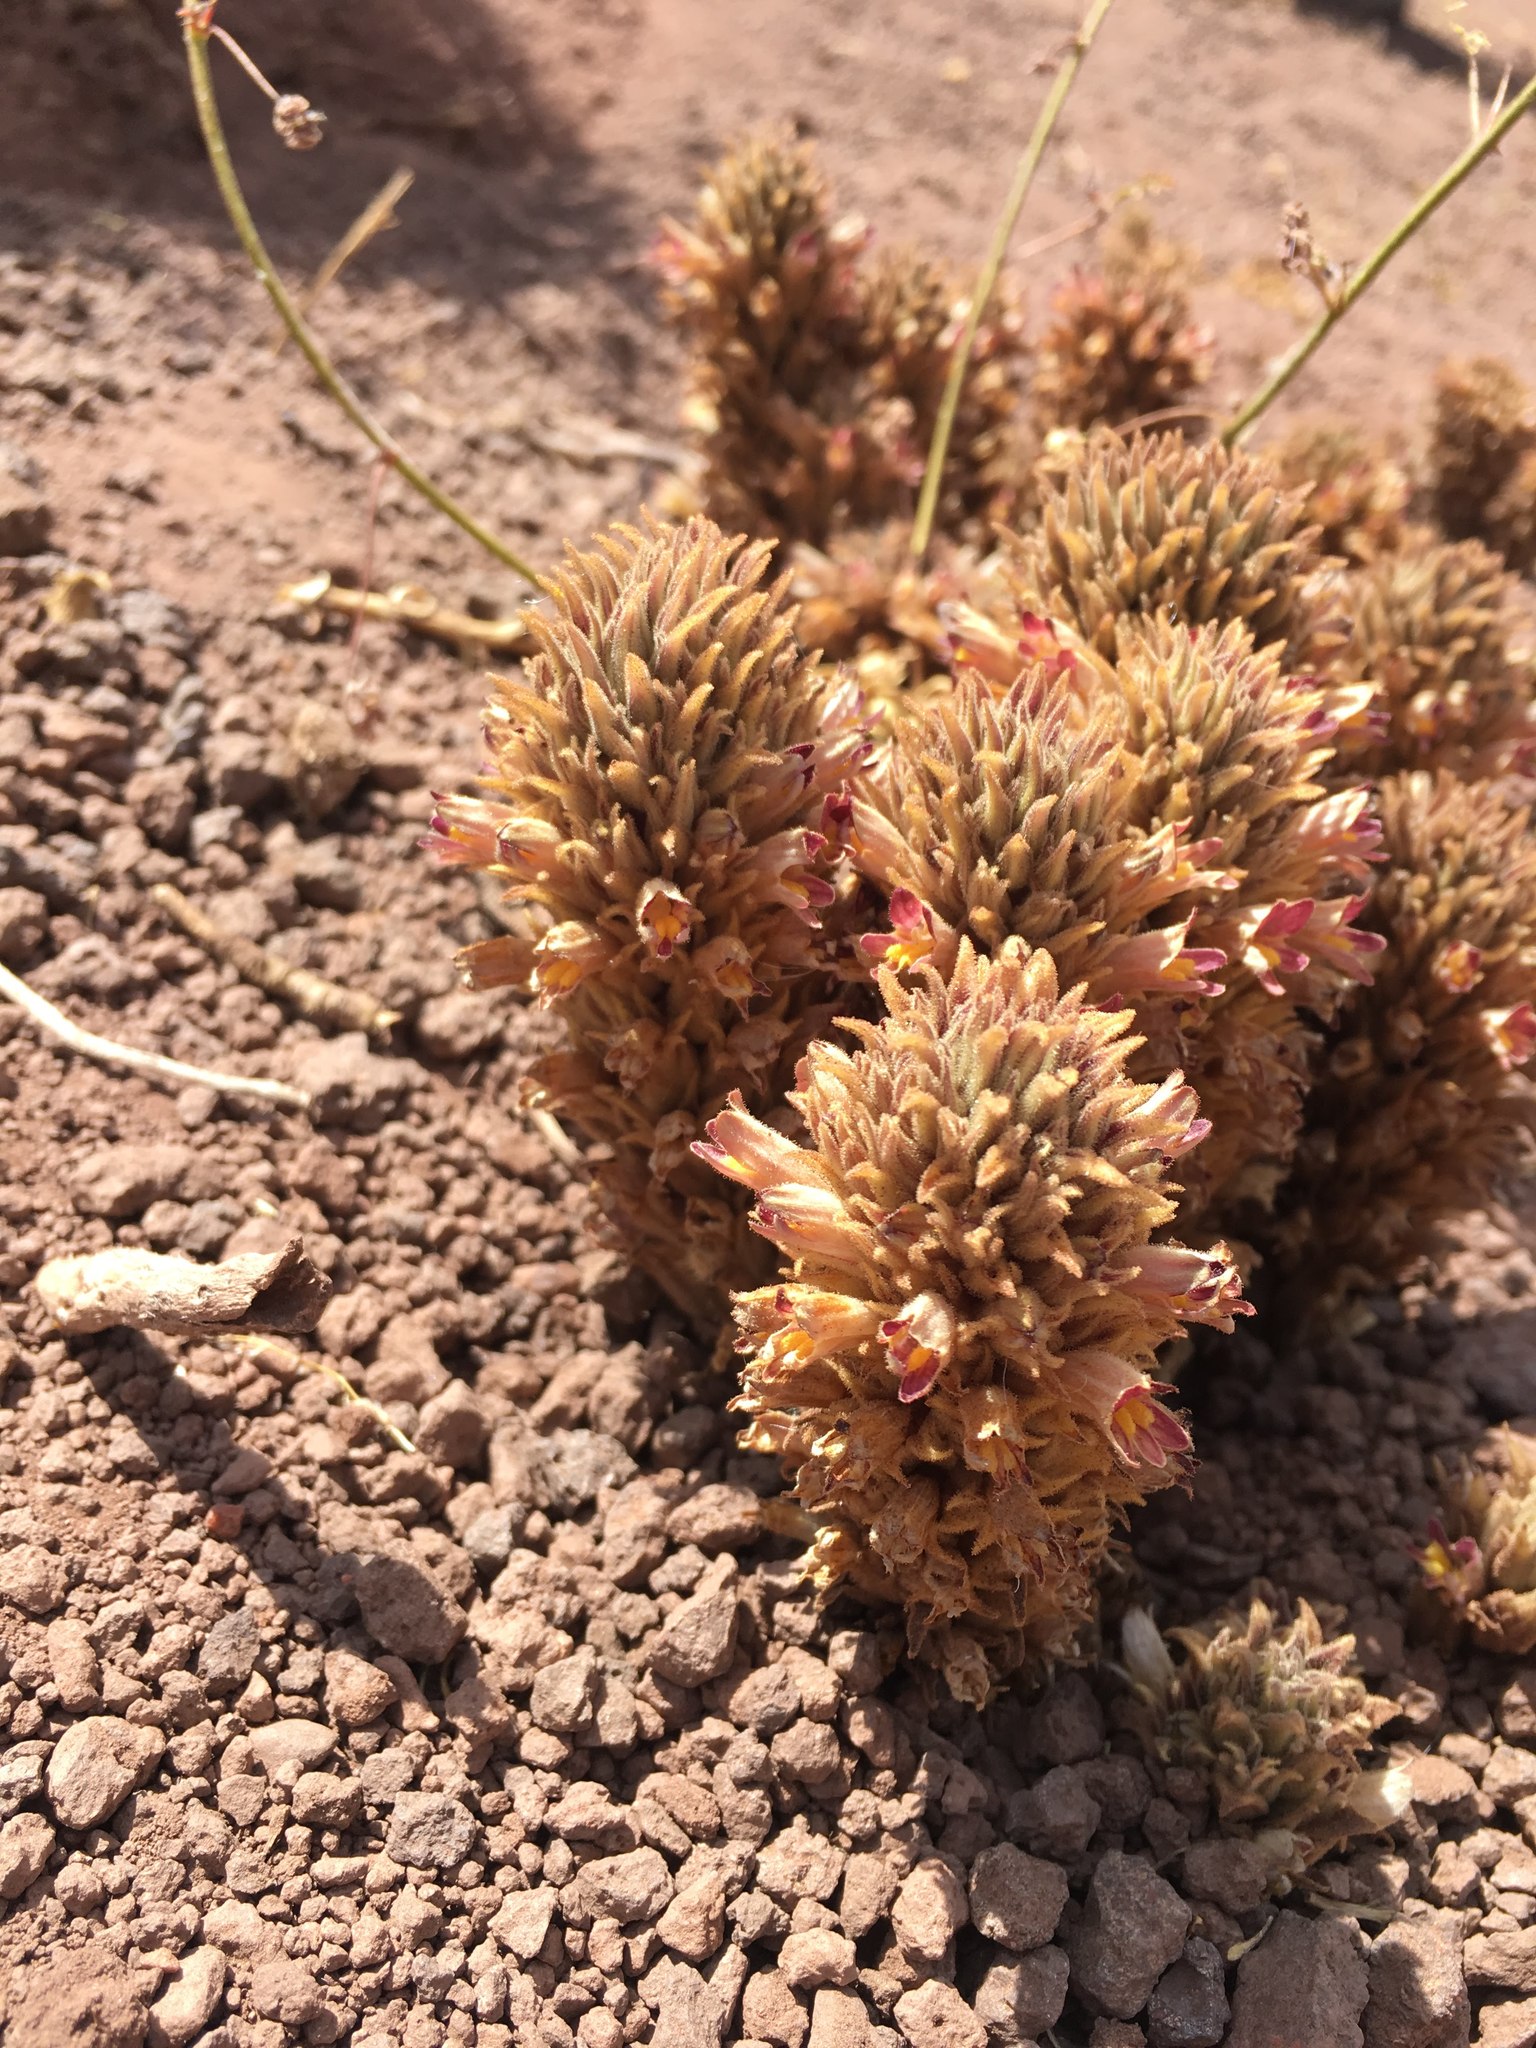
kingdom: Plantae
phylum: Tracheophyta
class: Magnoliopsida
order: Lamiales
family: Orobanchaceae
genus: Aphyllon
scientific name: Aphyllon chilense
